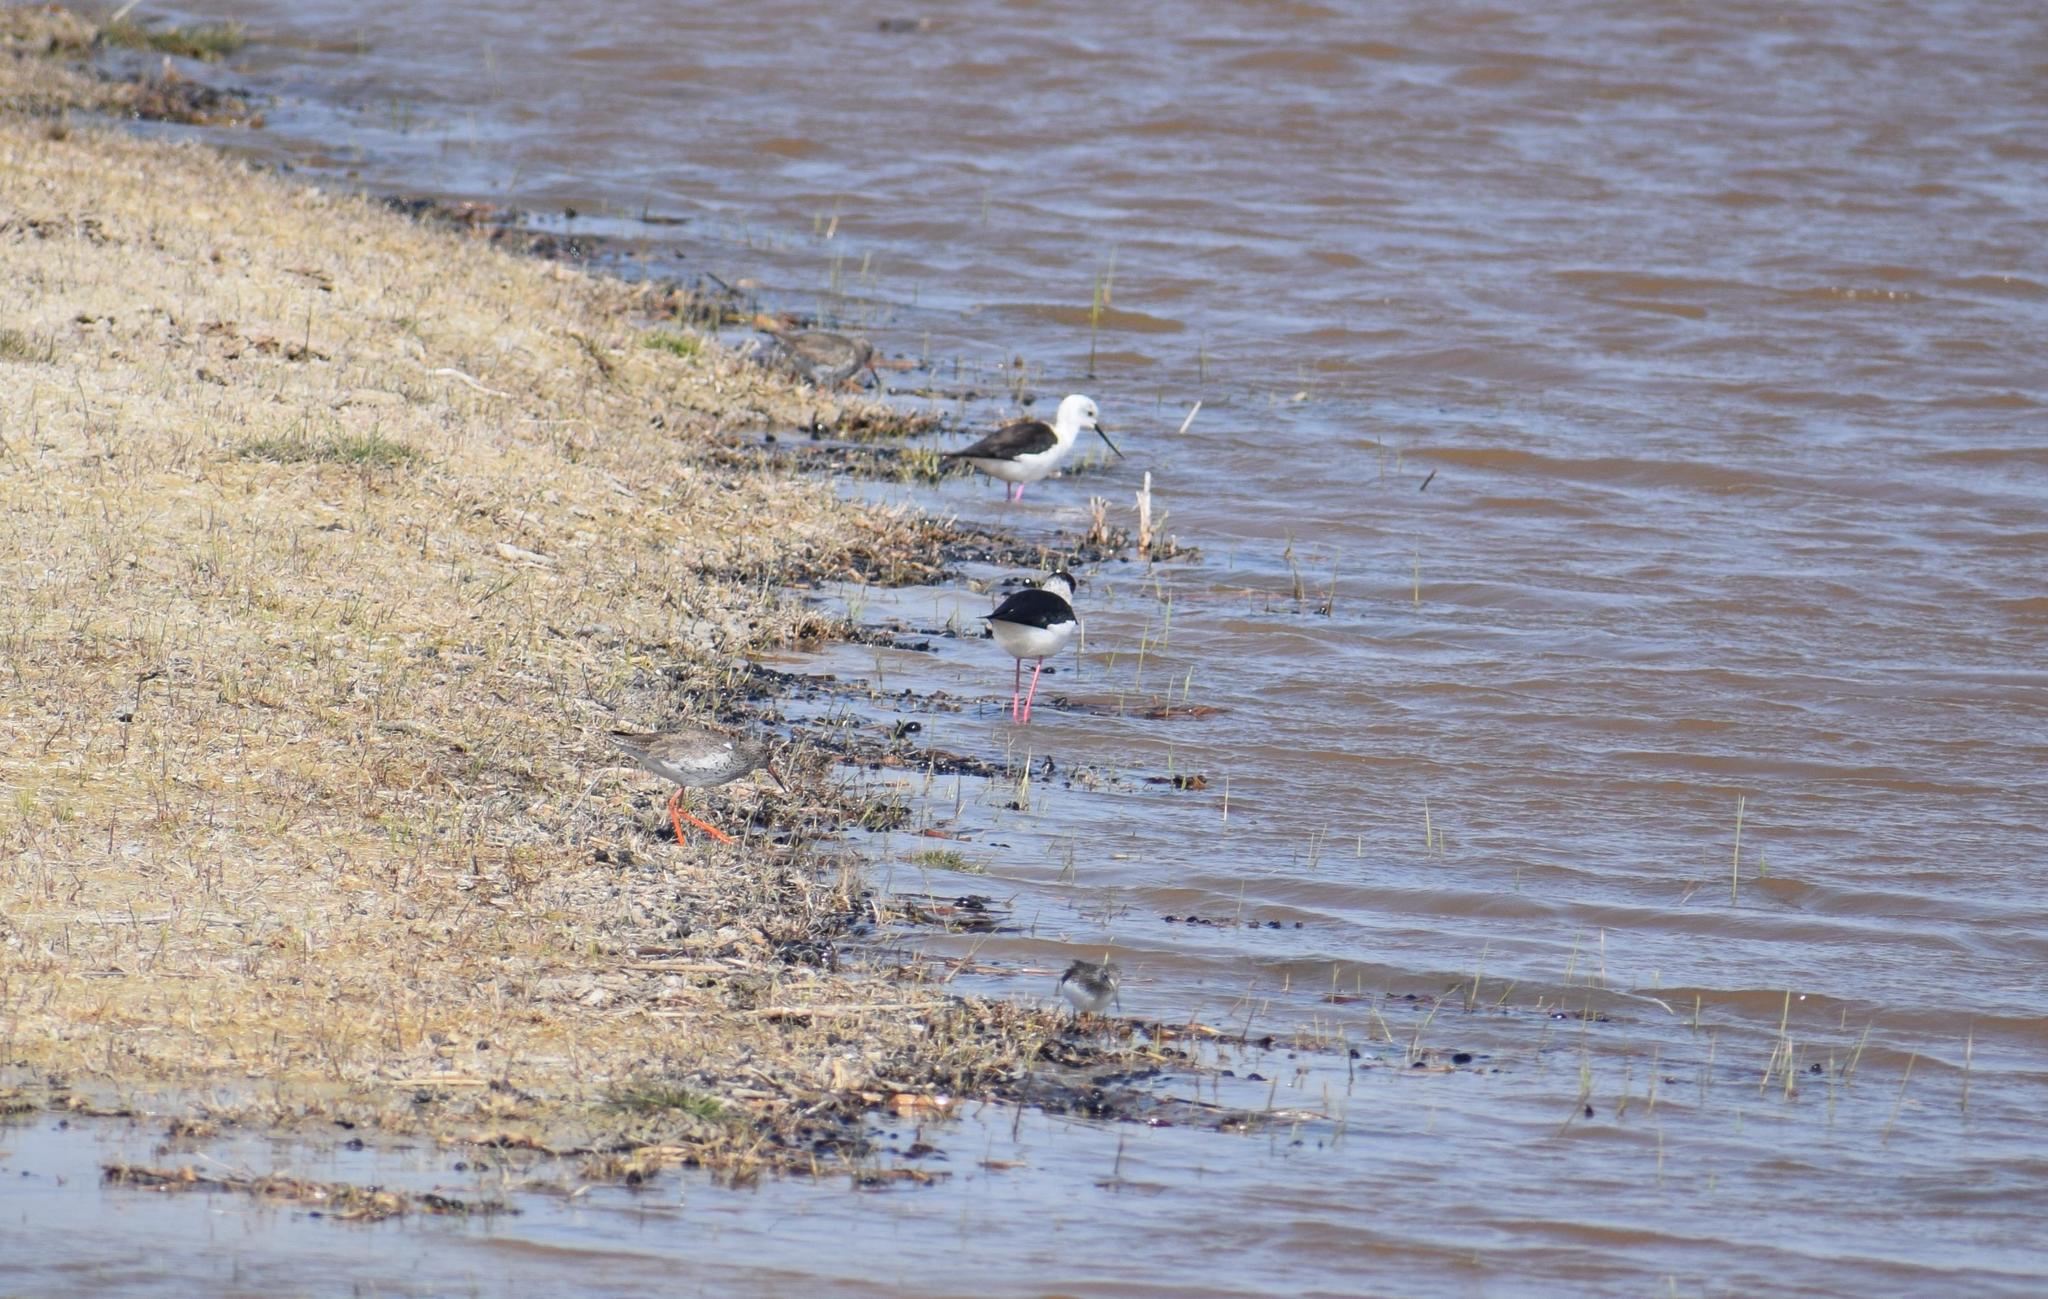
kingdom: Animalia
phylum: Chordata
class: Aves
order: Charadriiformes
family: Recurvirostridae
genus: Himantopus
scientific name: Himantopus himantopus
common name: Black-winged stilt
